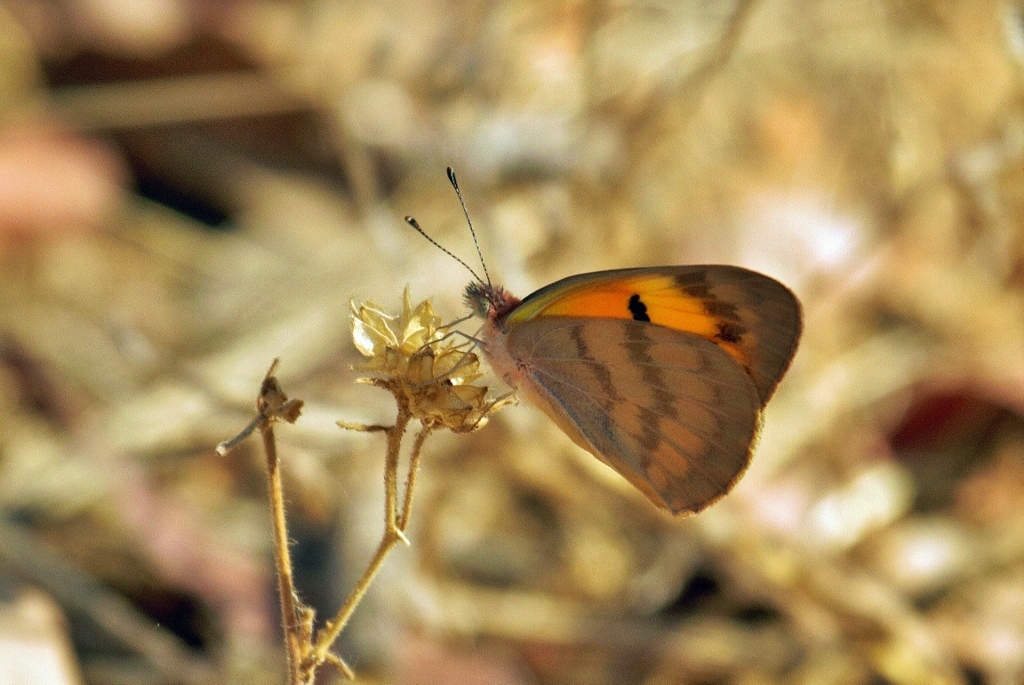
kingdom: Animalia
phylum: Arthropoda
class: Insecta
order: Lepidoptera
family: Pieridae
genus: Colotis
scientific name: Colotis vesta
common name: Veined golden arab
